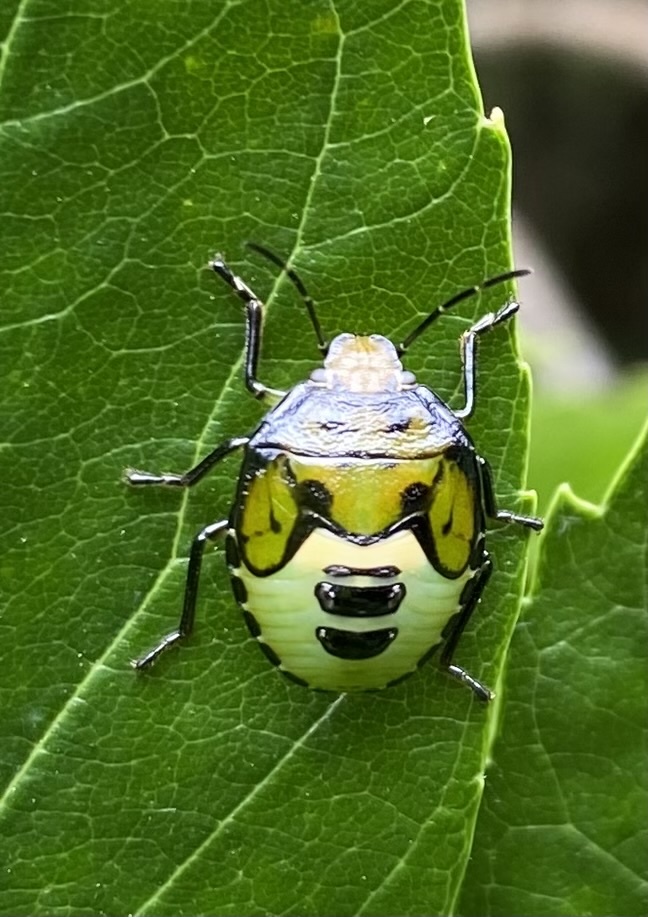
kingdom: Animalia
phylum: Arthropoda
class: Insecta
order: Hemiptera
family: Pentatomidae
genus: Glaucias
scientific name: Glaucias amyota
